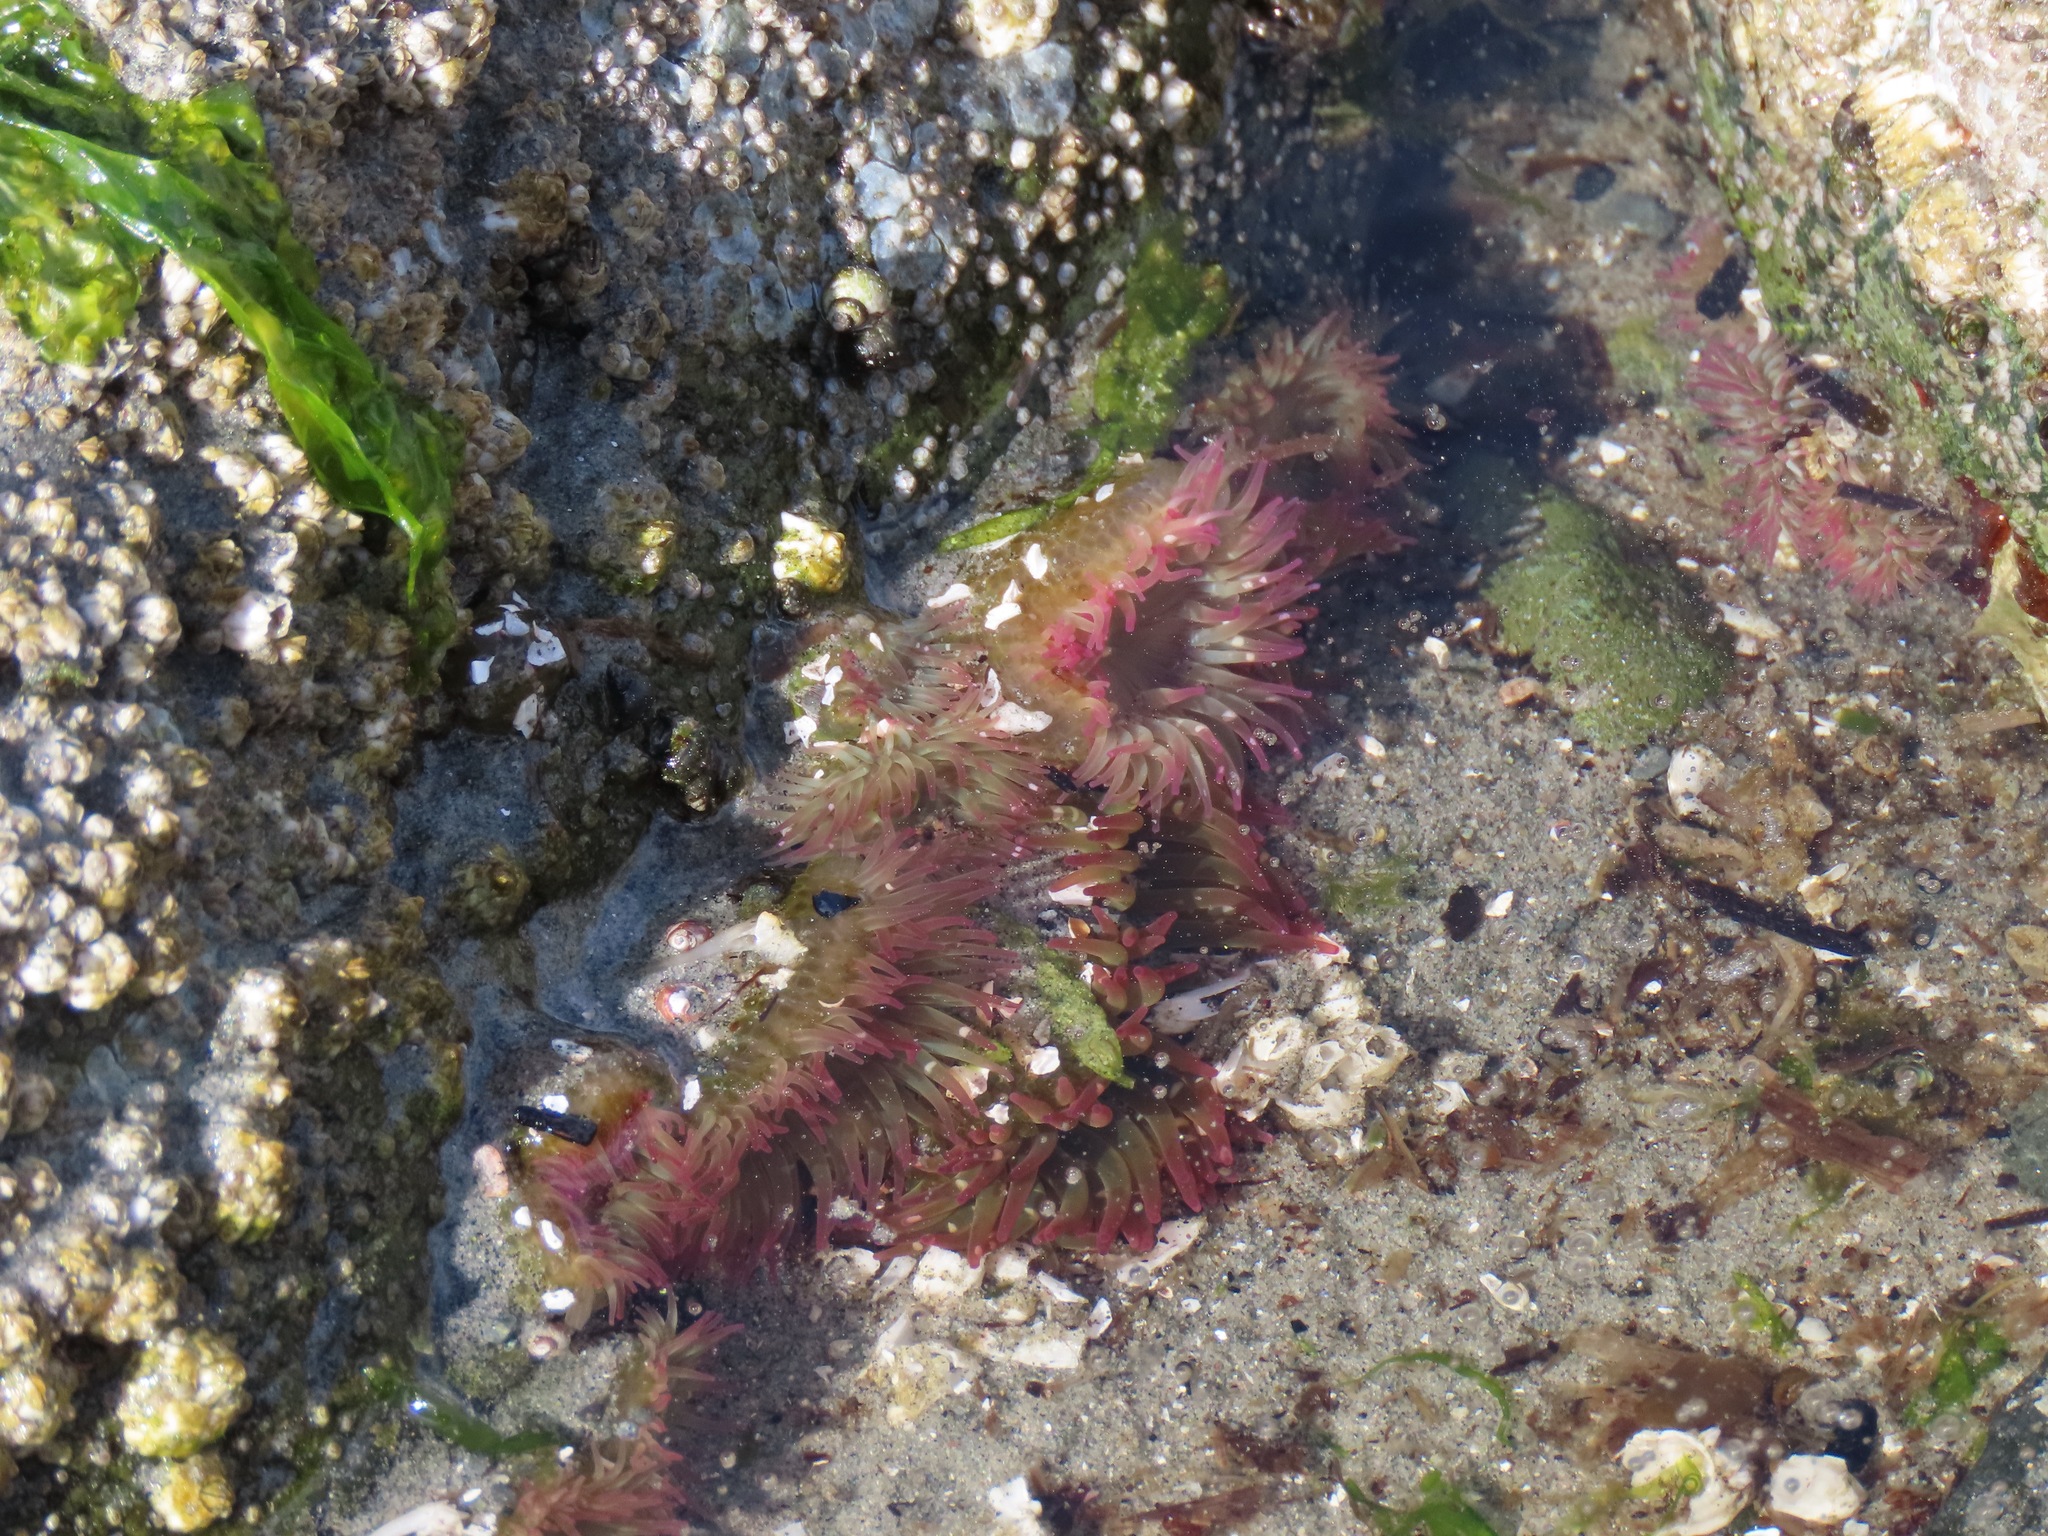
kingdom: Animalia
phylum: Cnidaria
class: Anthozoa
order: Actiniaria
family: Actiniidae
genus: Anthopleura
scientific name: Anthopleura elegantissima
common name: Clonal anemone
